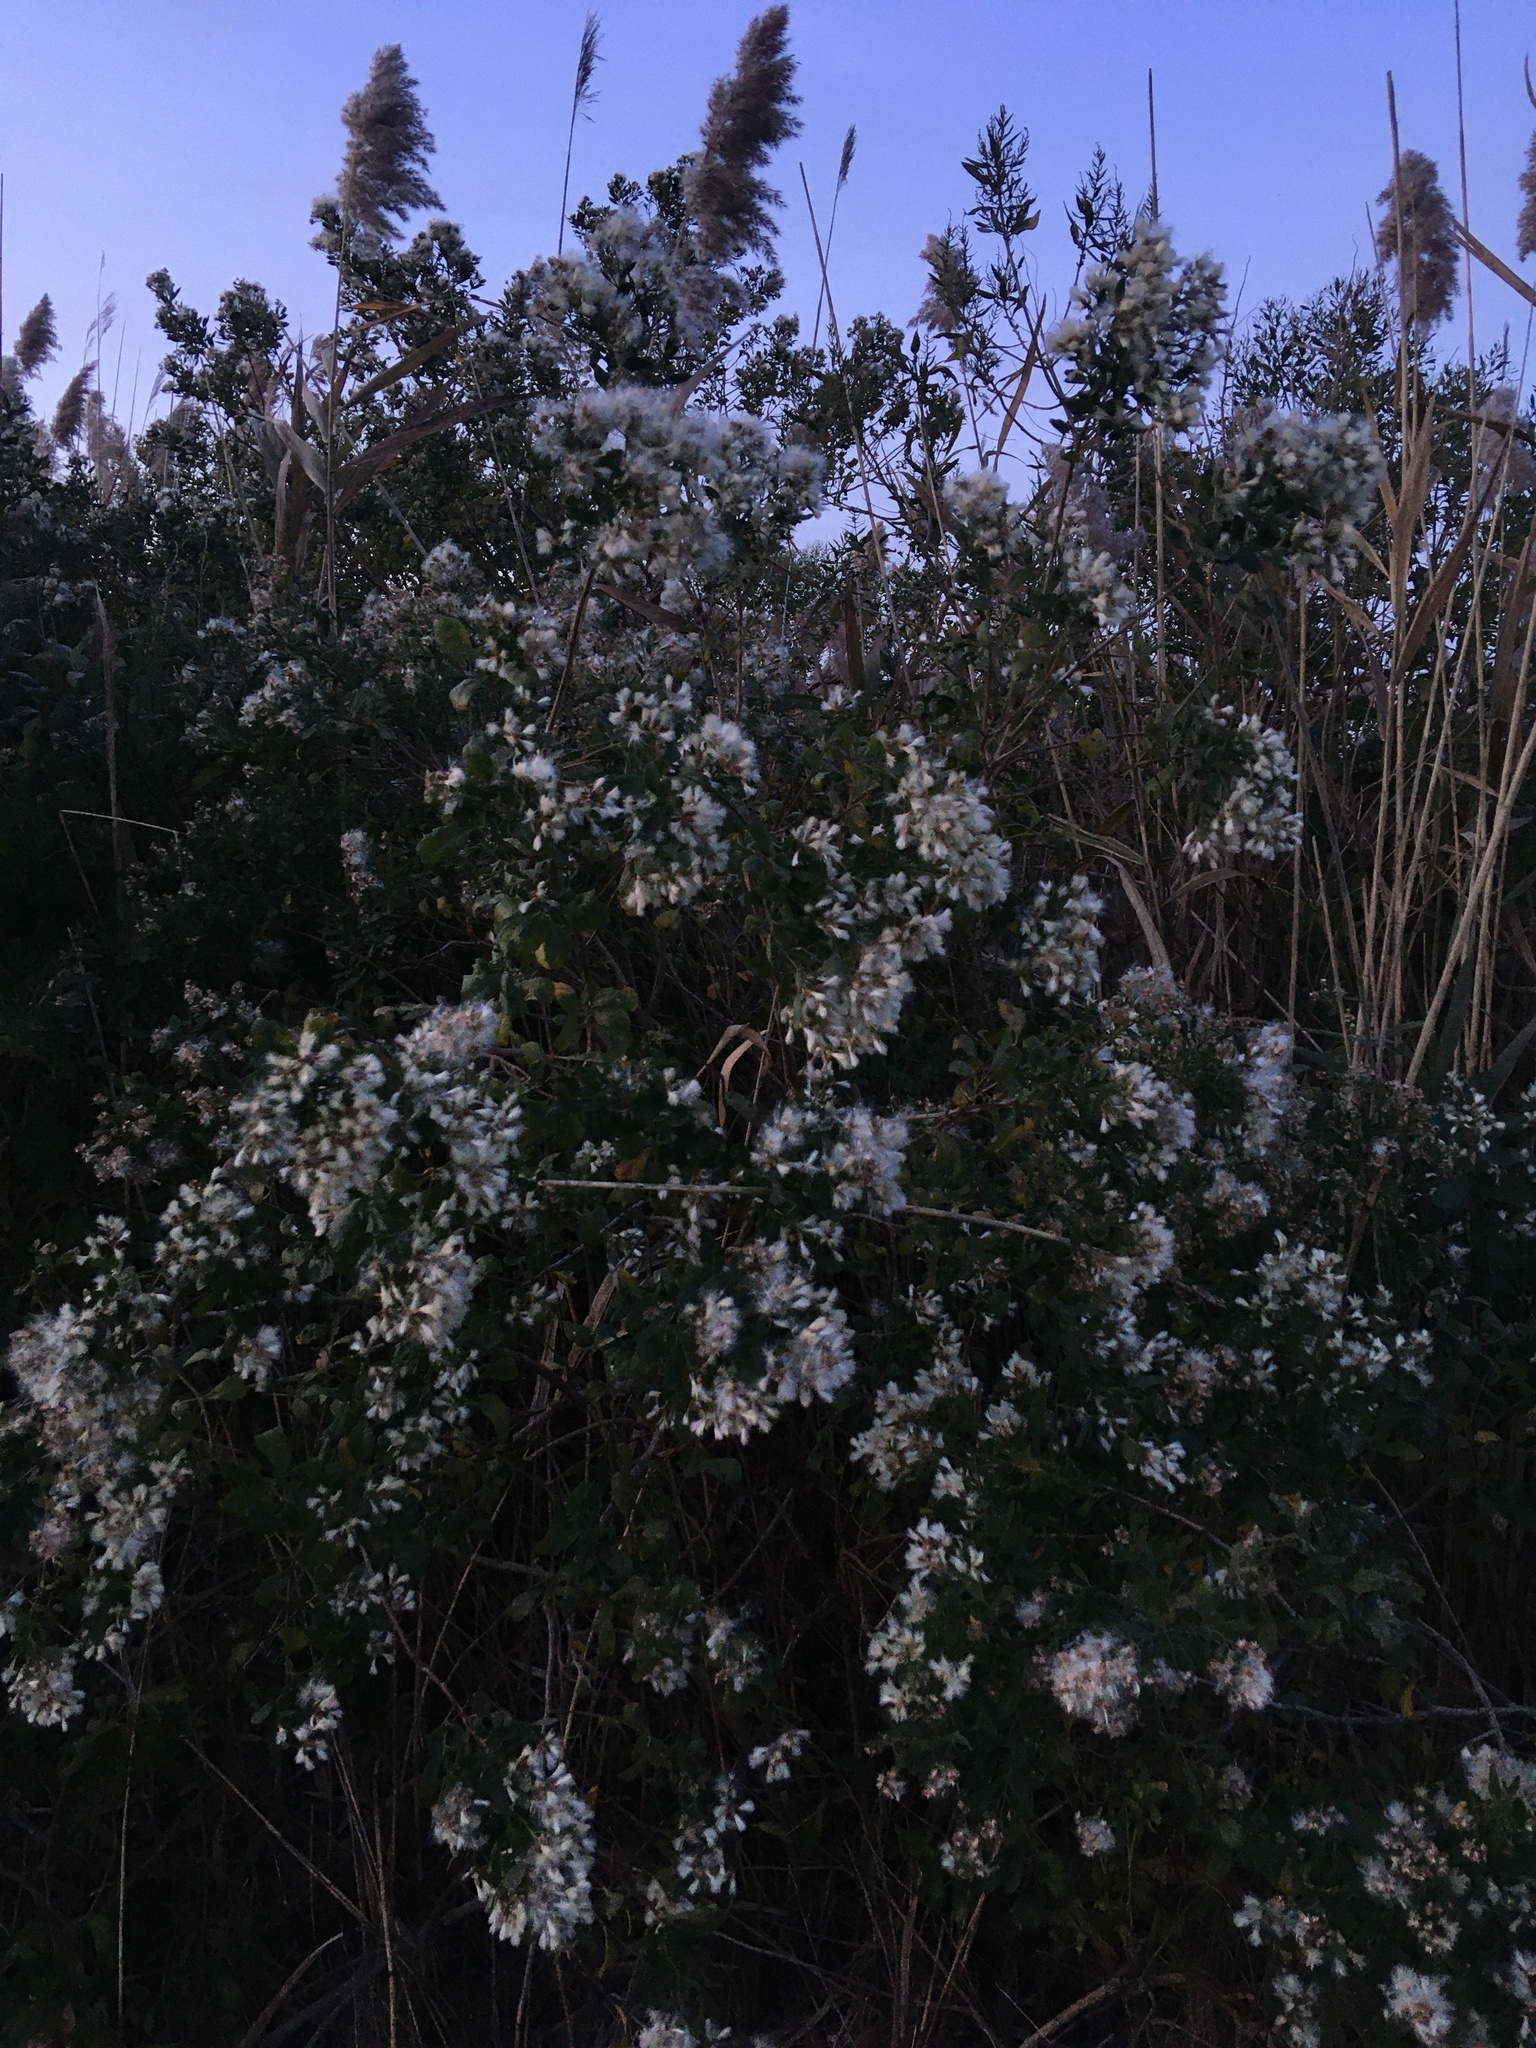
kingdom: Plantae
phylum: Tracheophyta
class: Magnoliopsida
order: Asterales
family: Asteraceae
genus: Baccharis
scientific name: Baccharis halimifolia
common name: Eastern baccharis
